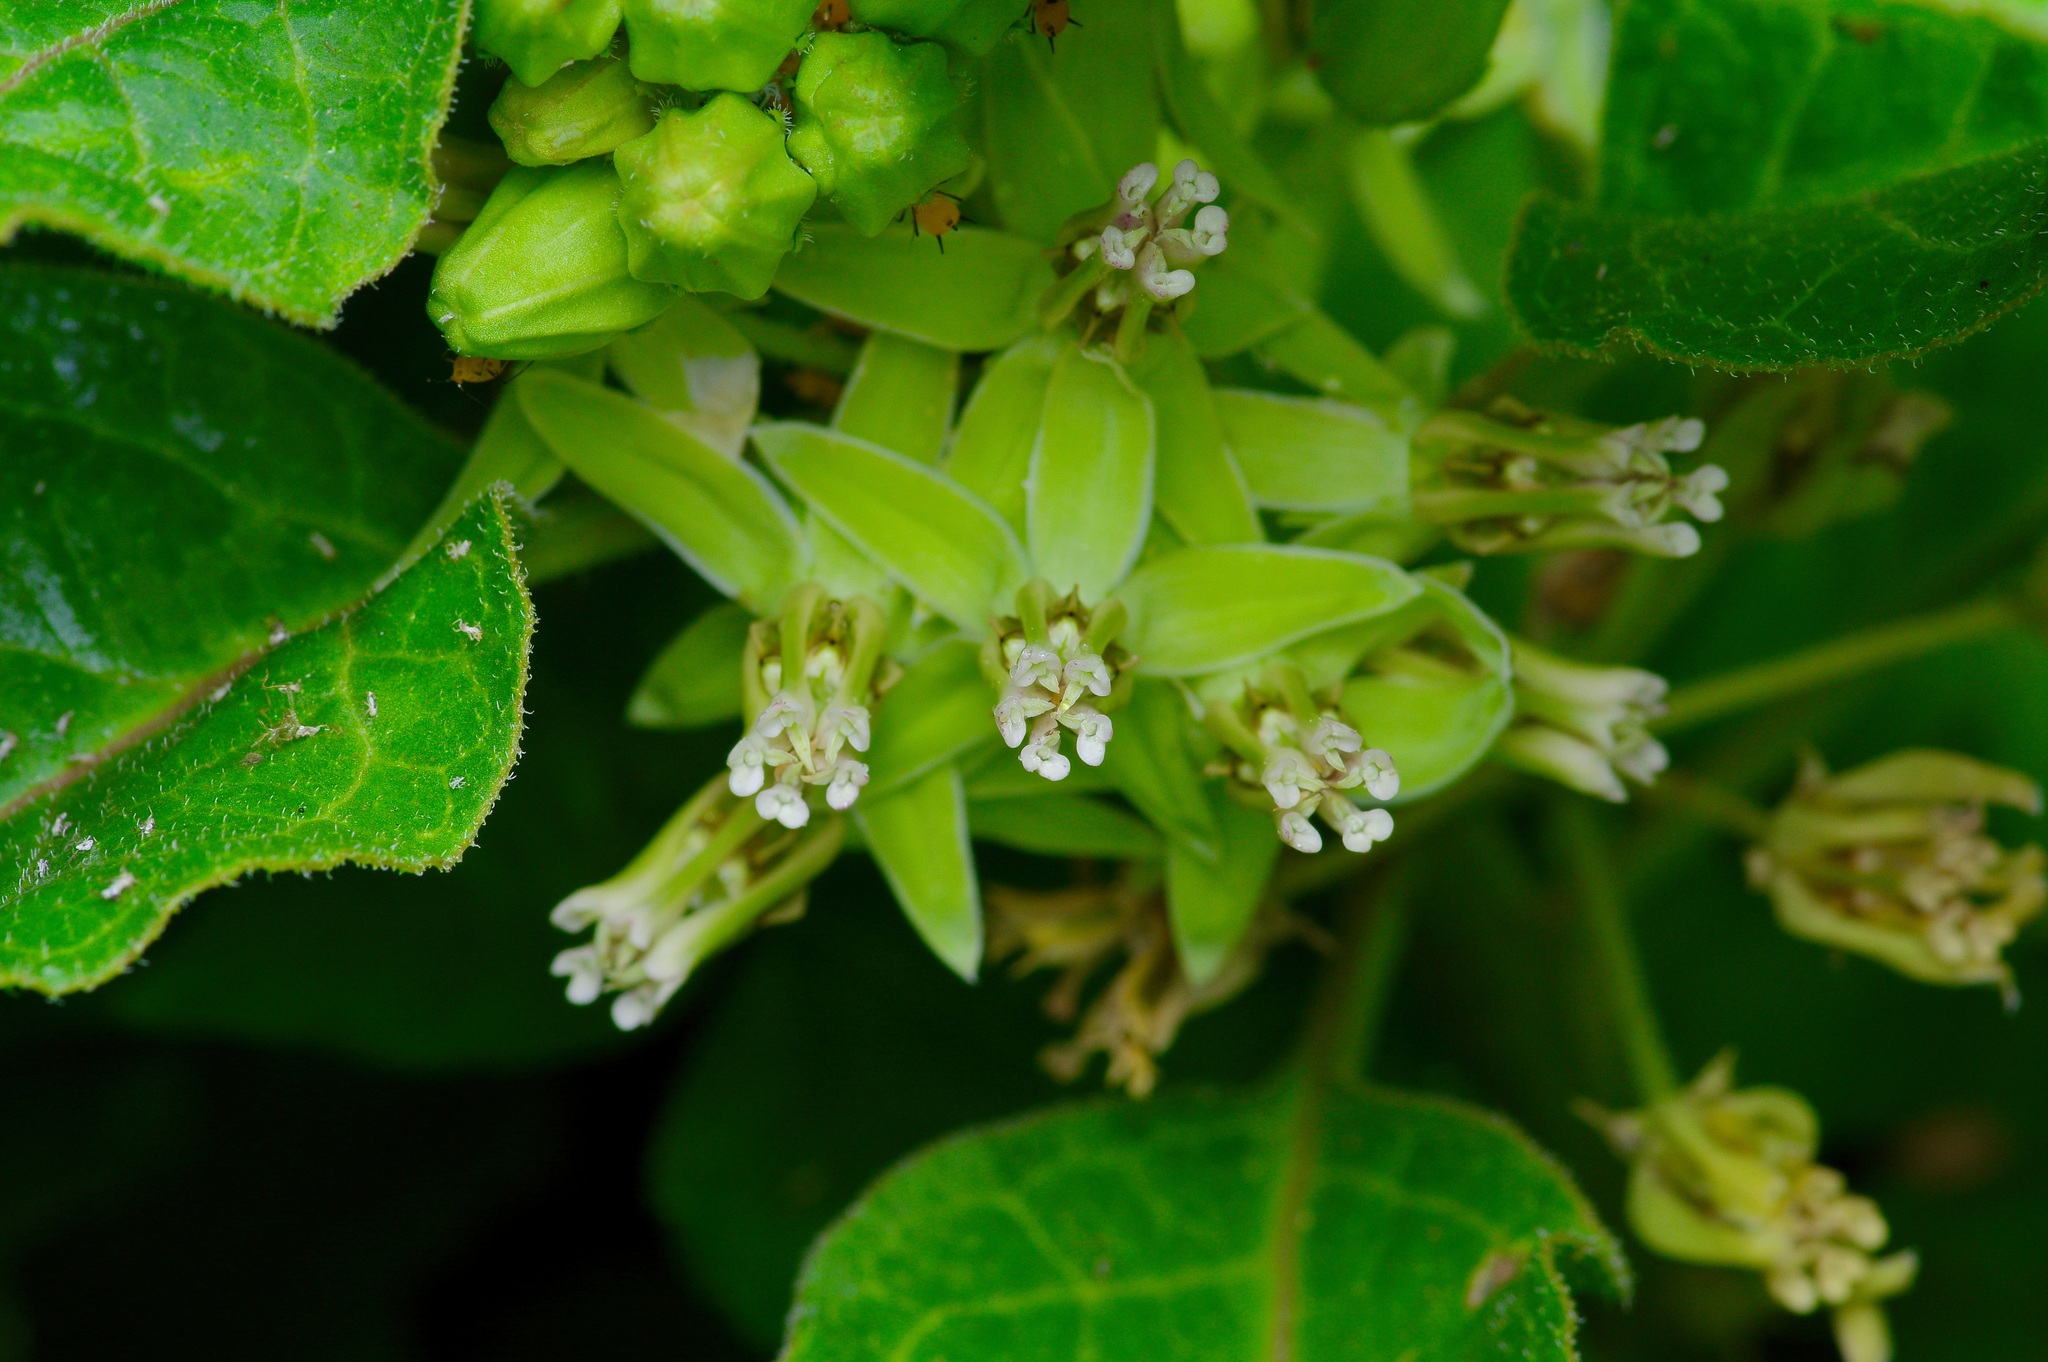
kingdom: Plantae
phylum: Tracheophyta
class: Magnoliopsida
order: Gentianales
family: Apocynaceae
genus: Asclepias
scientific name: Asclepias oenotheroides
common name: Zizotes milkweed
